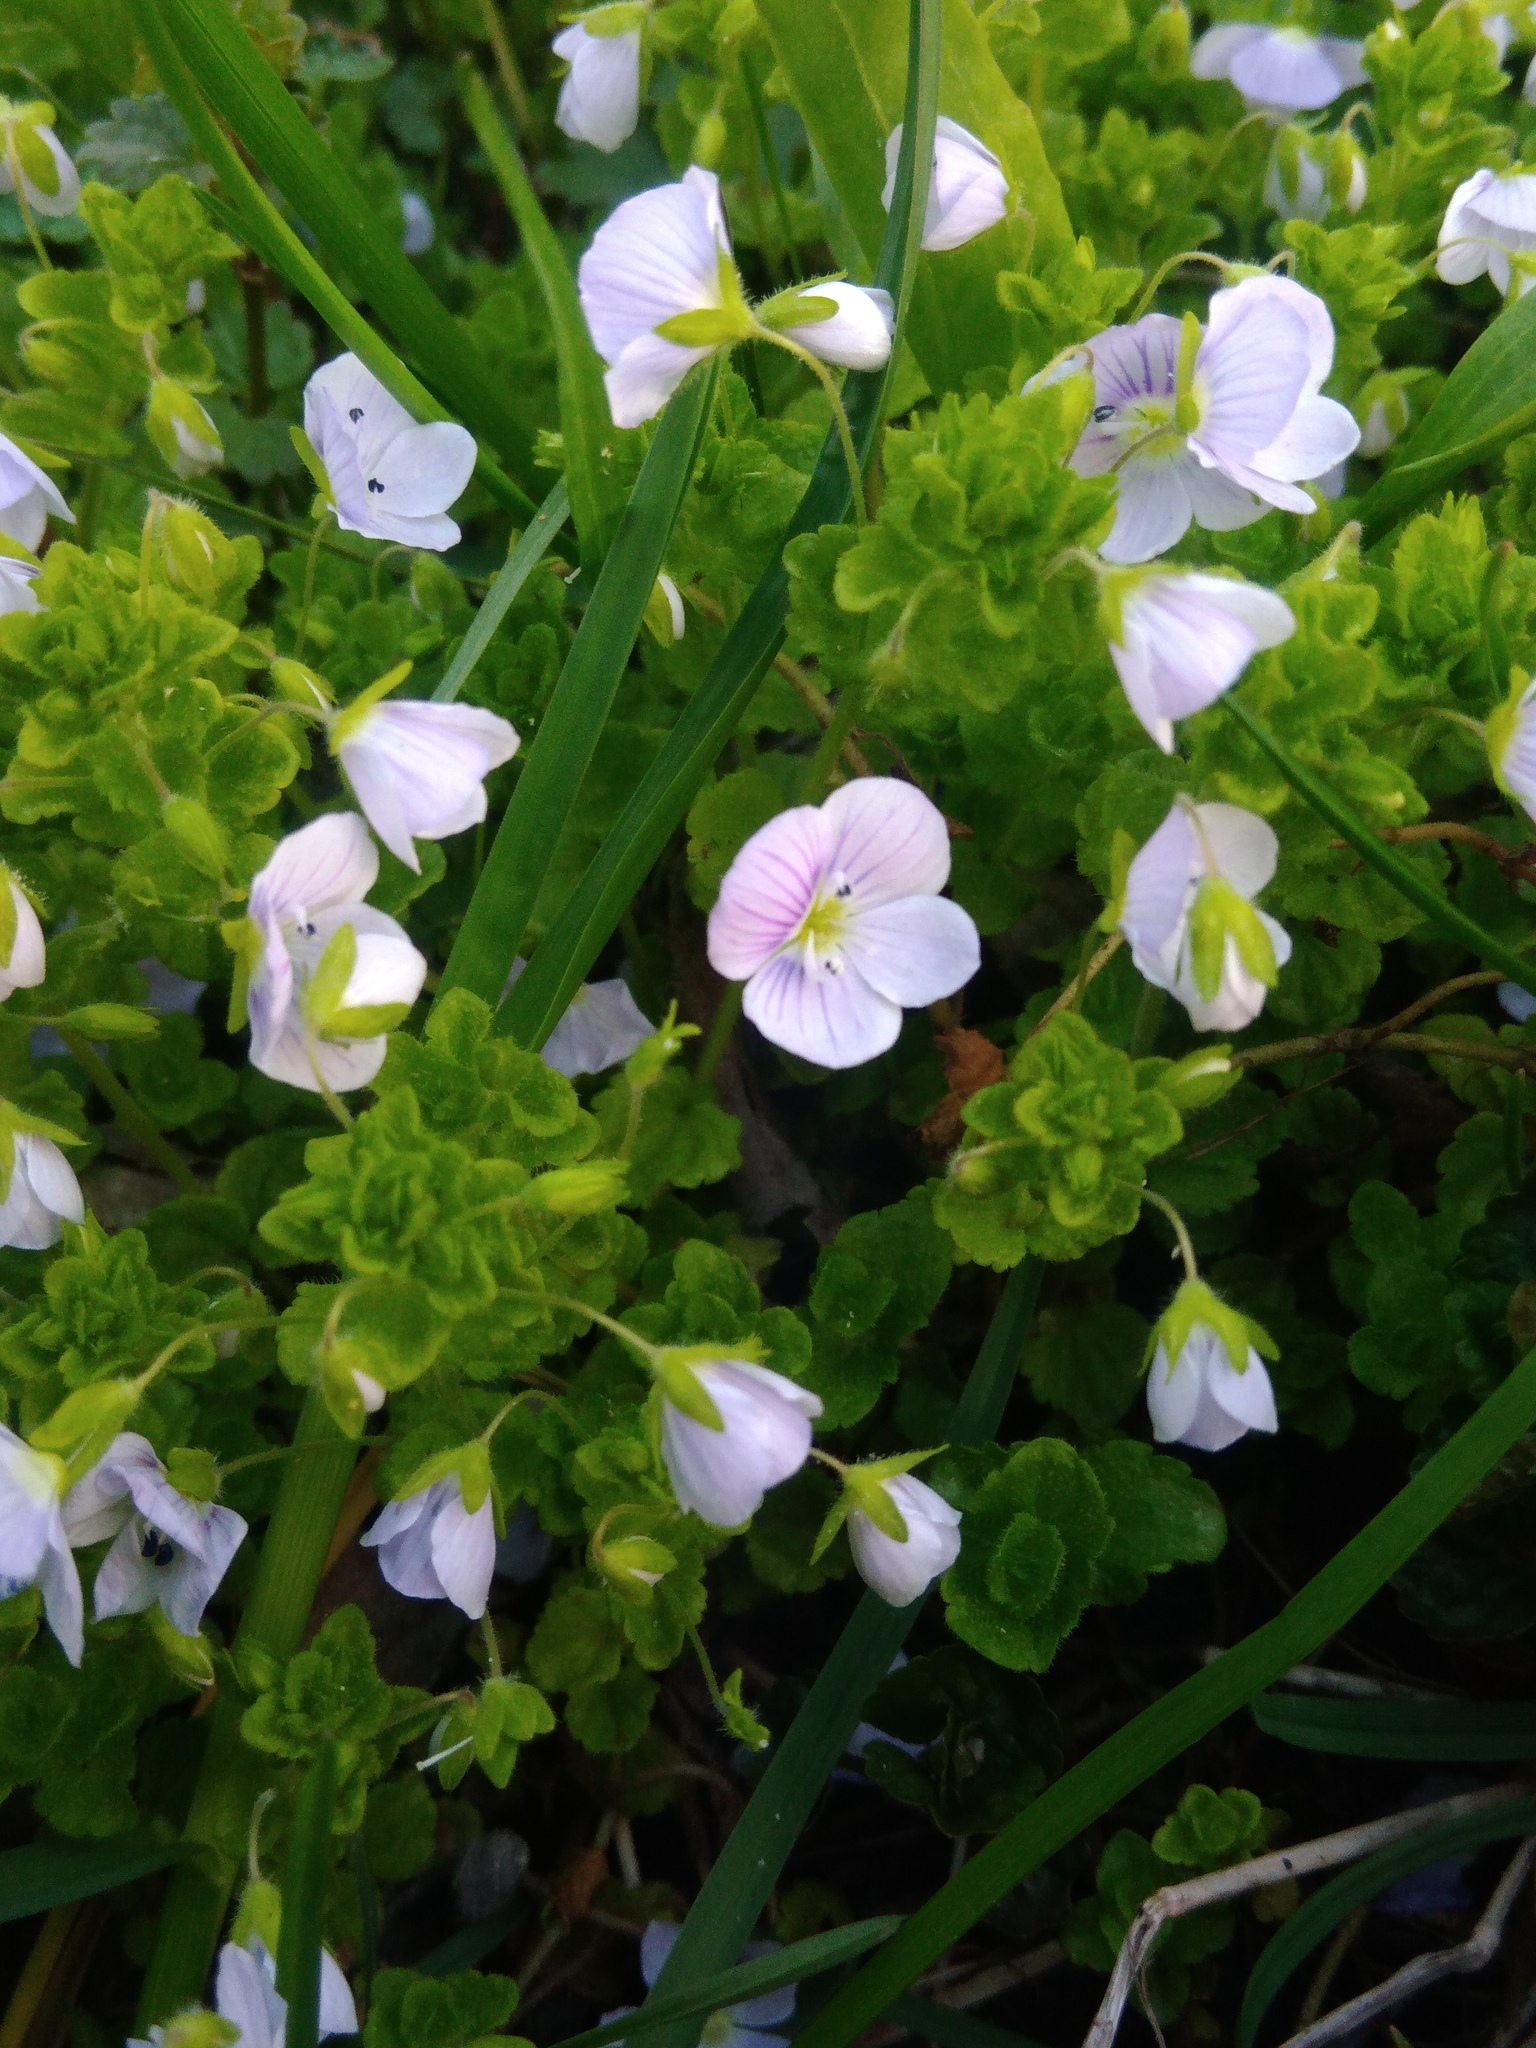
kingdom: Plantae
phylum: Tracheophyta
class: Magnoliopsida
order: Lamiales
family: Plantaginaceae
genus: Veronica
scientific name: Veronica filiformis
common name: Slender speedwell
